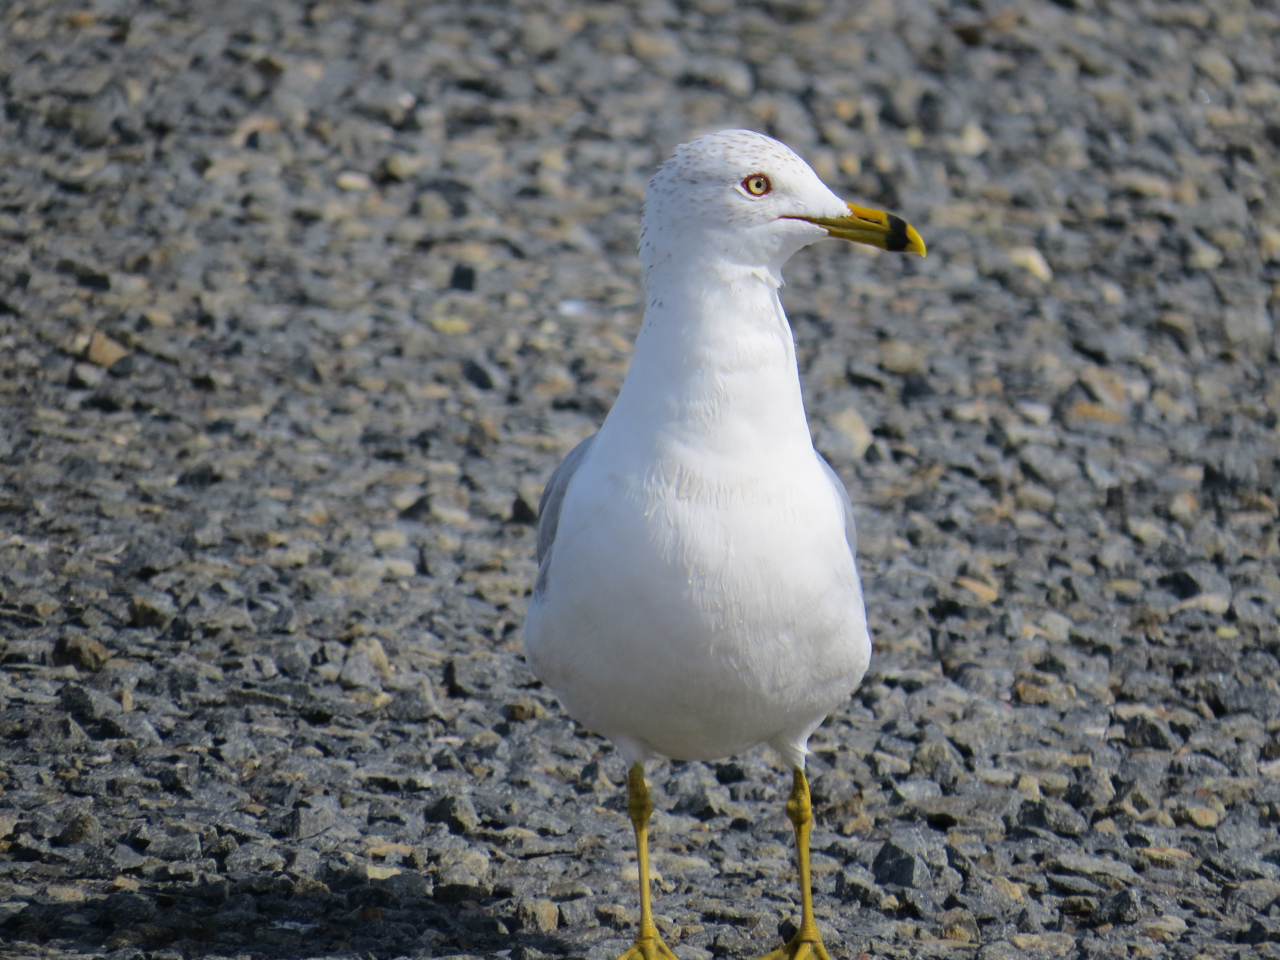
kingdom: Animalia
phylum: Chordata
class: Aves
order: Charadriiformes
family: Laridae
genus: Larus
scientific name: Larus delawarensis
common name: Ring-billed gull
